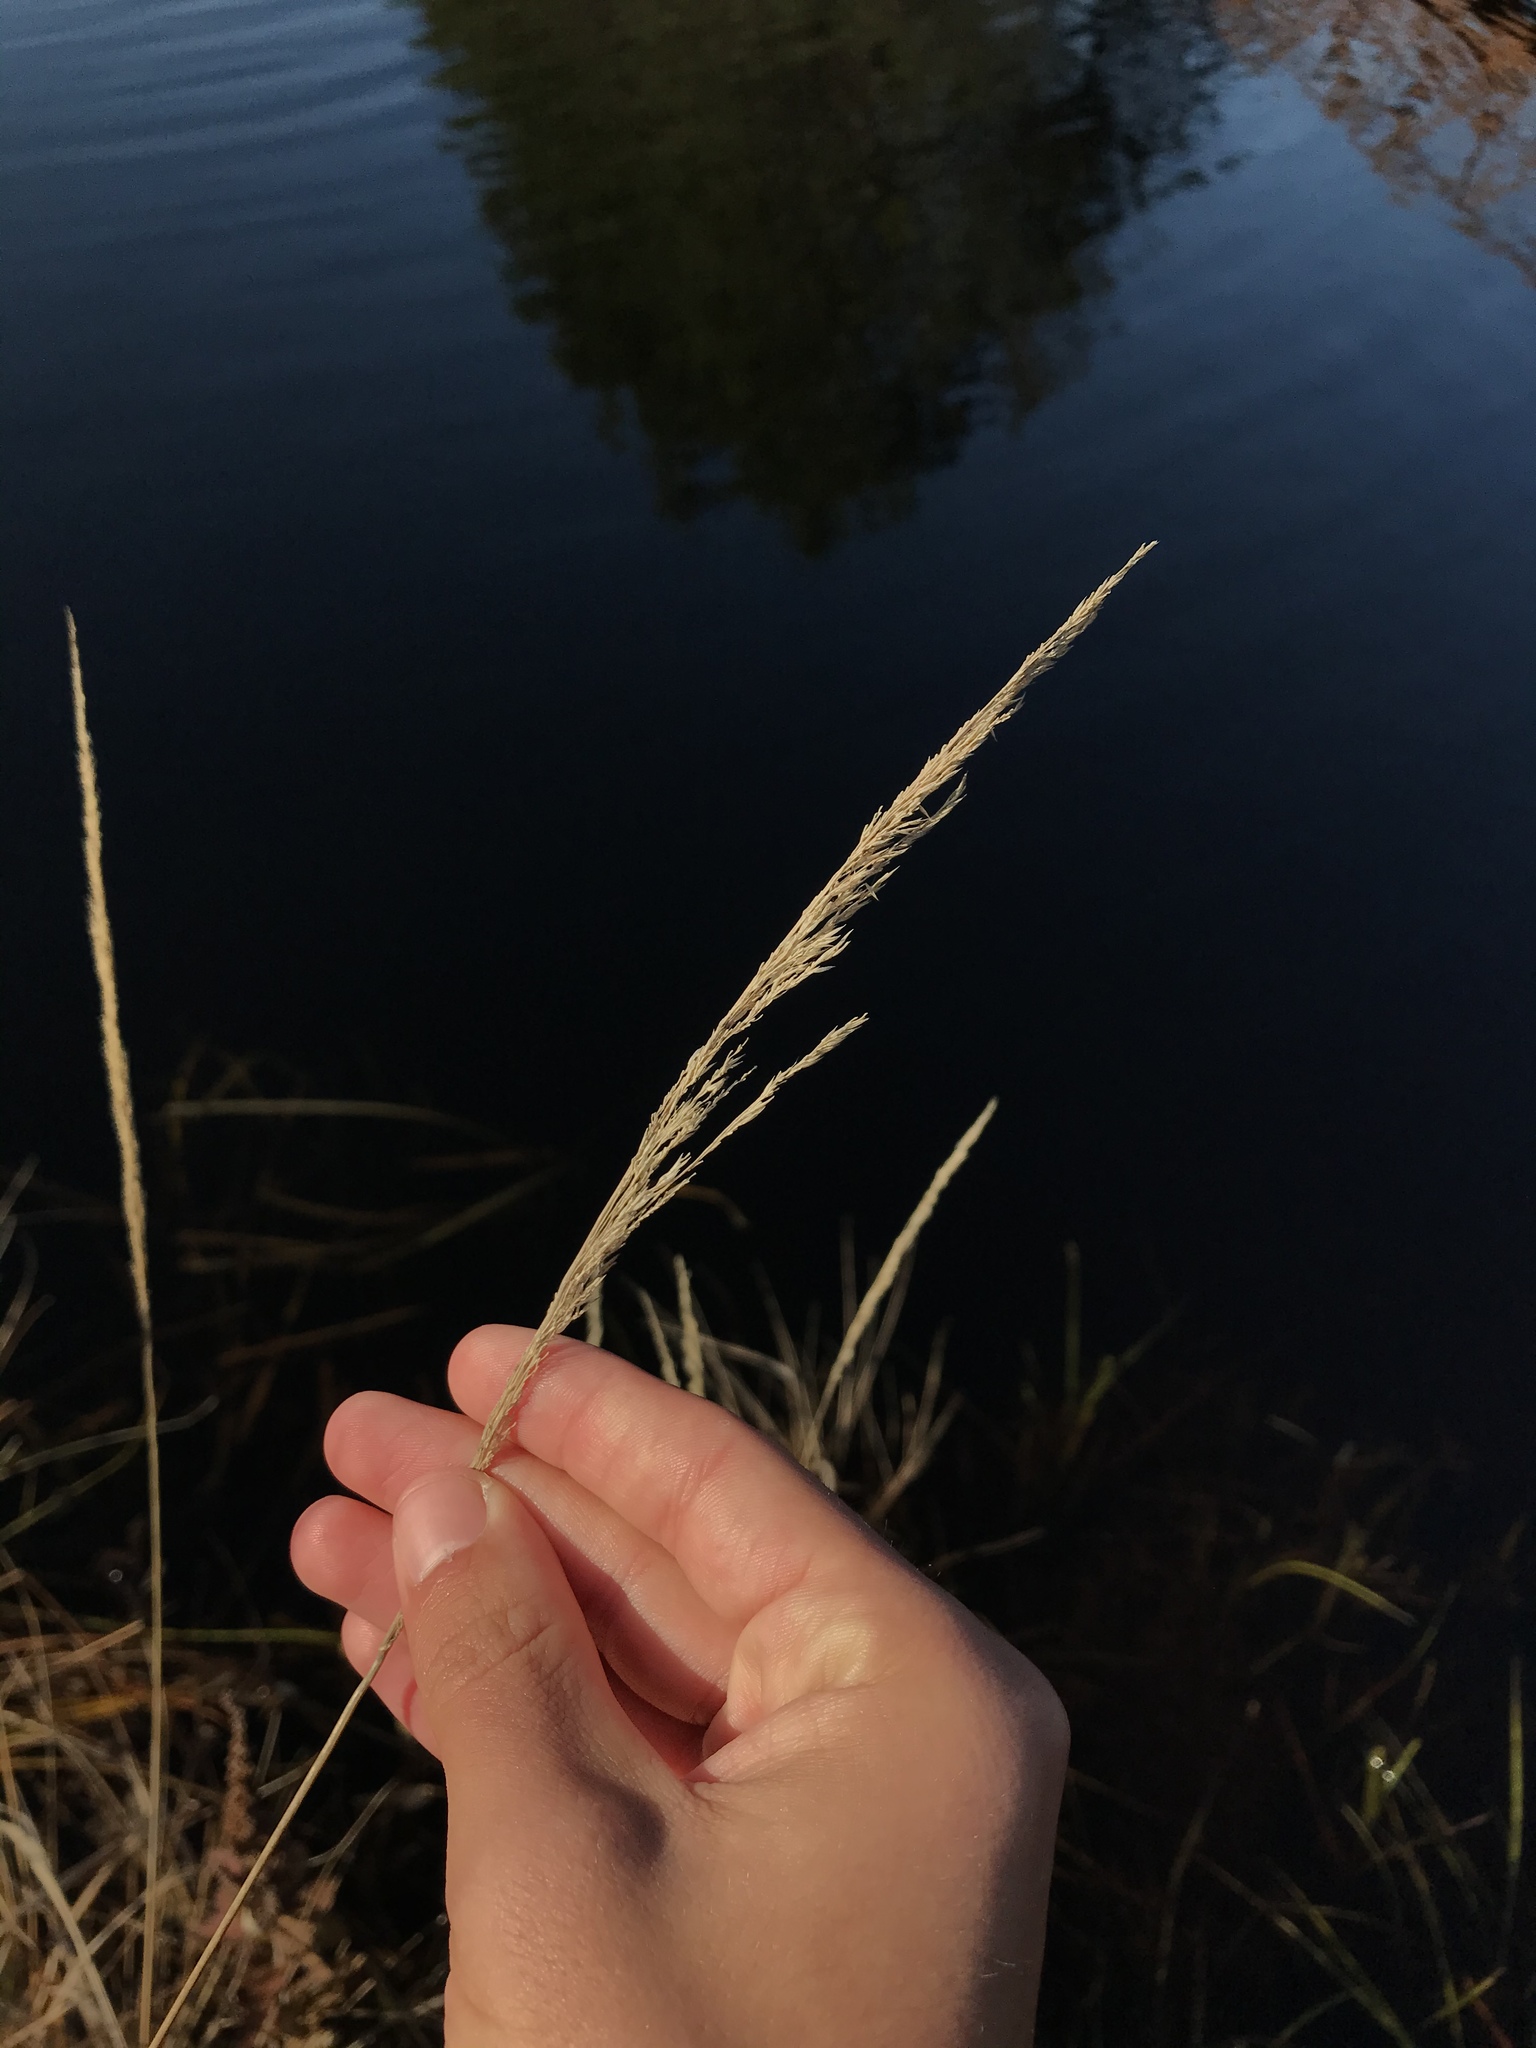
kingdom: Plantae
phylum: Tracheophyta
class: Liliopsida
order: Poales
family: Poaceae
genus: Calamagrostis
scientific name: Calamagrostis canadensis
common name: Canada bluejoint
